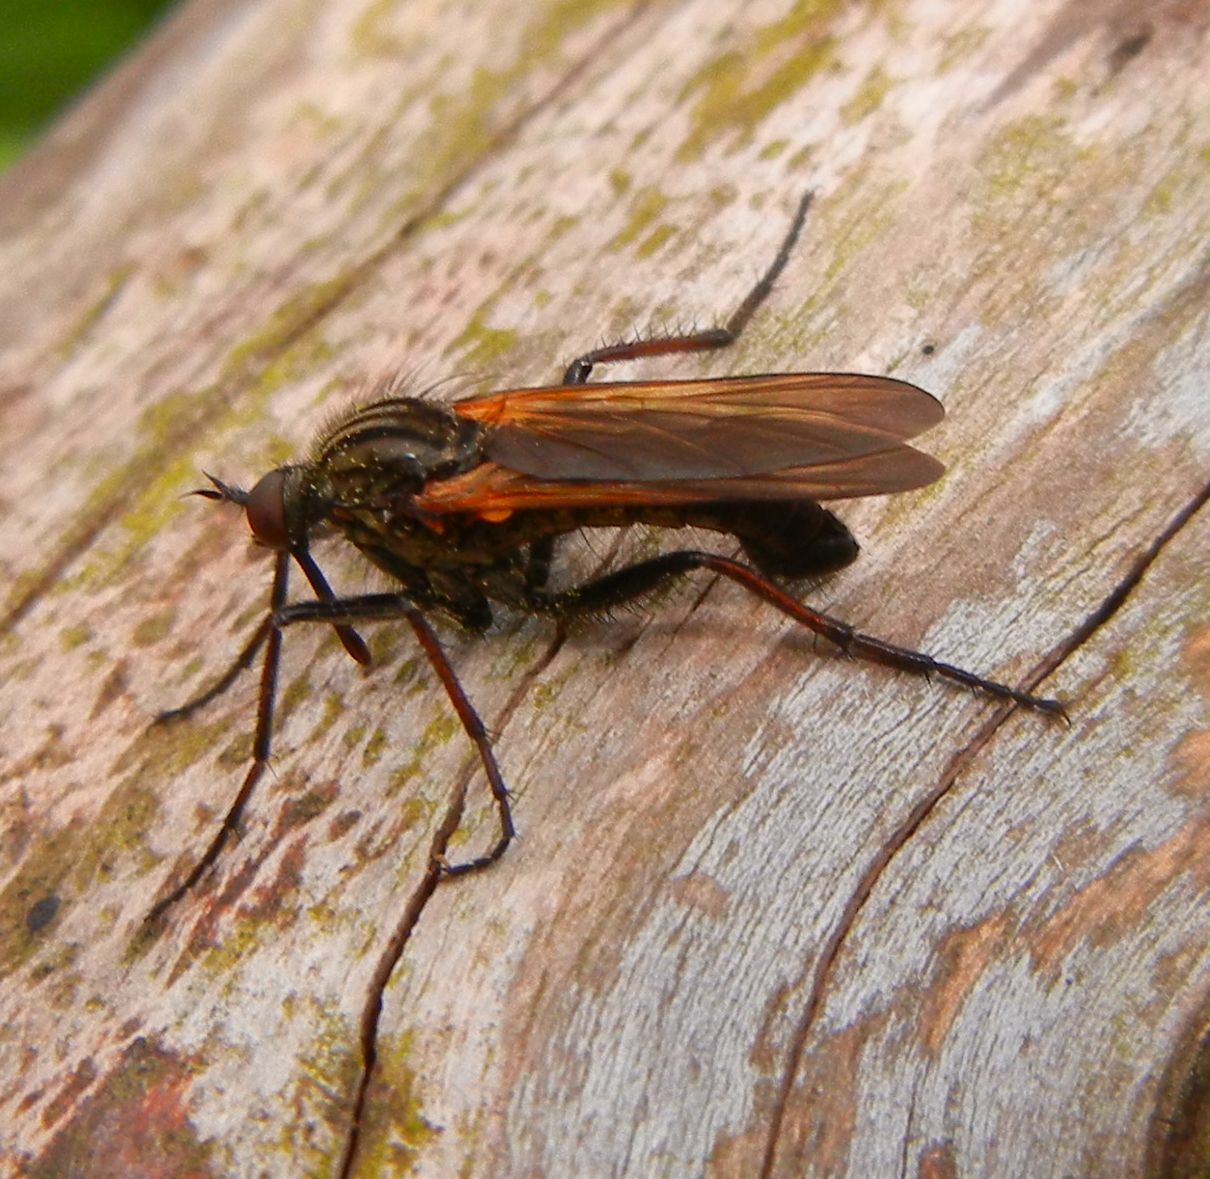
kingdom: Animalia
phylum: Arthropoda
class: Insecta
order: Diptera
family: Empididae
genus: Empis
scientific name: Empis tessellata
